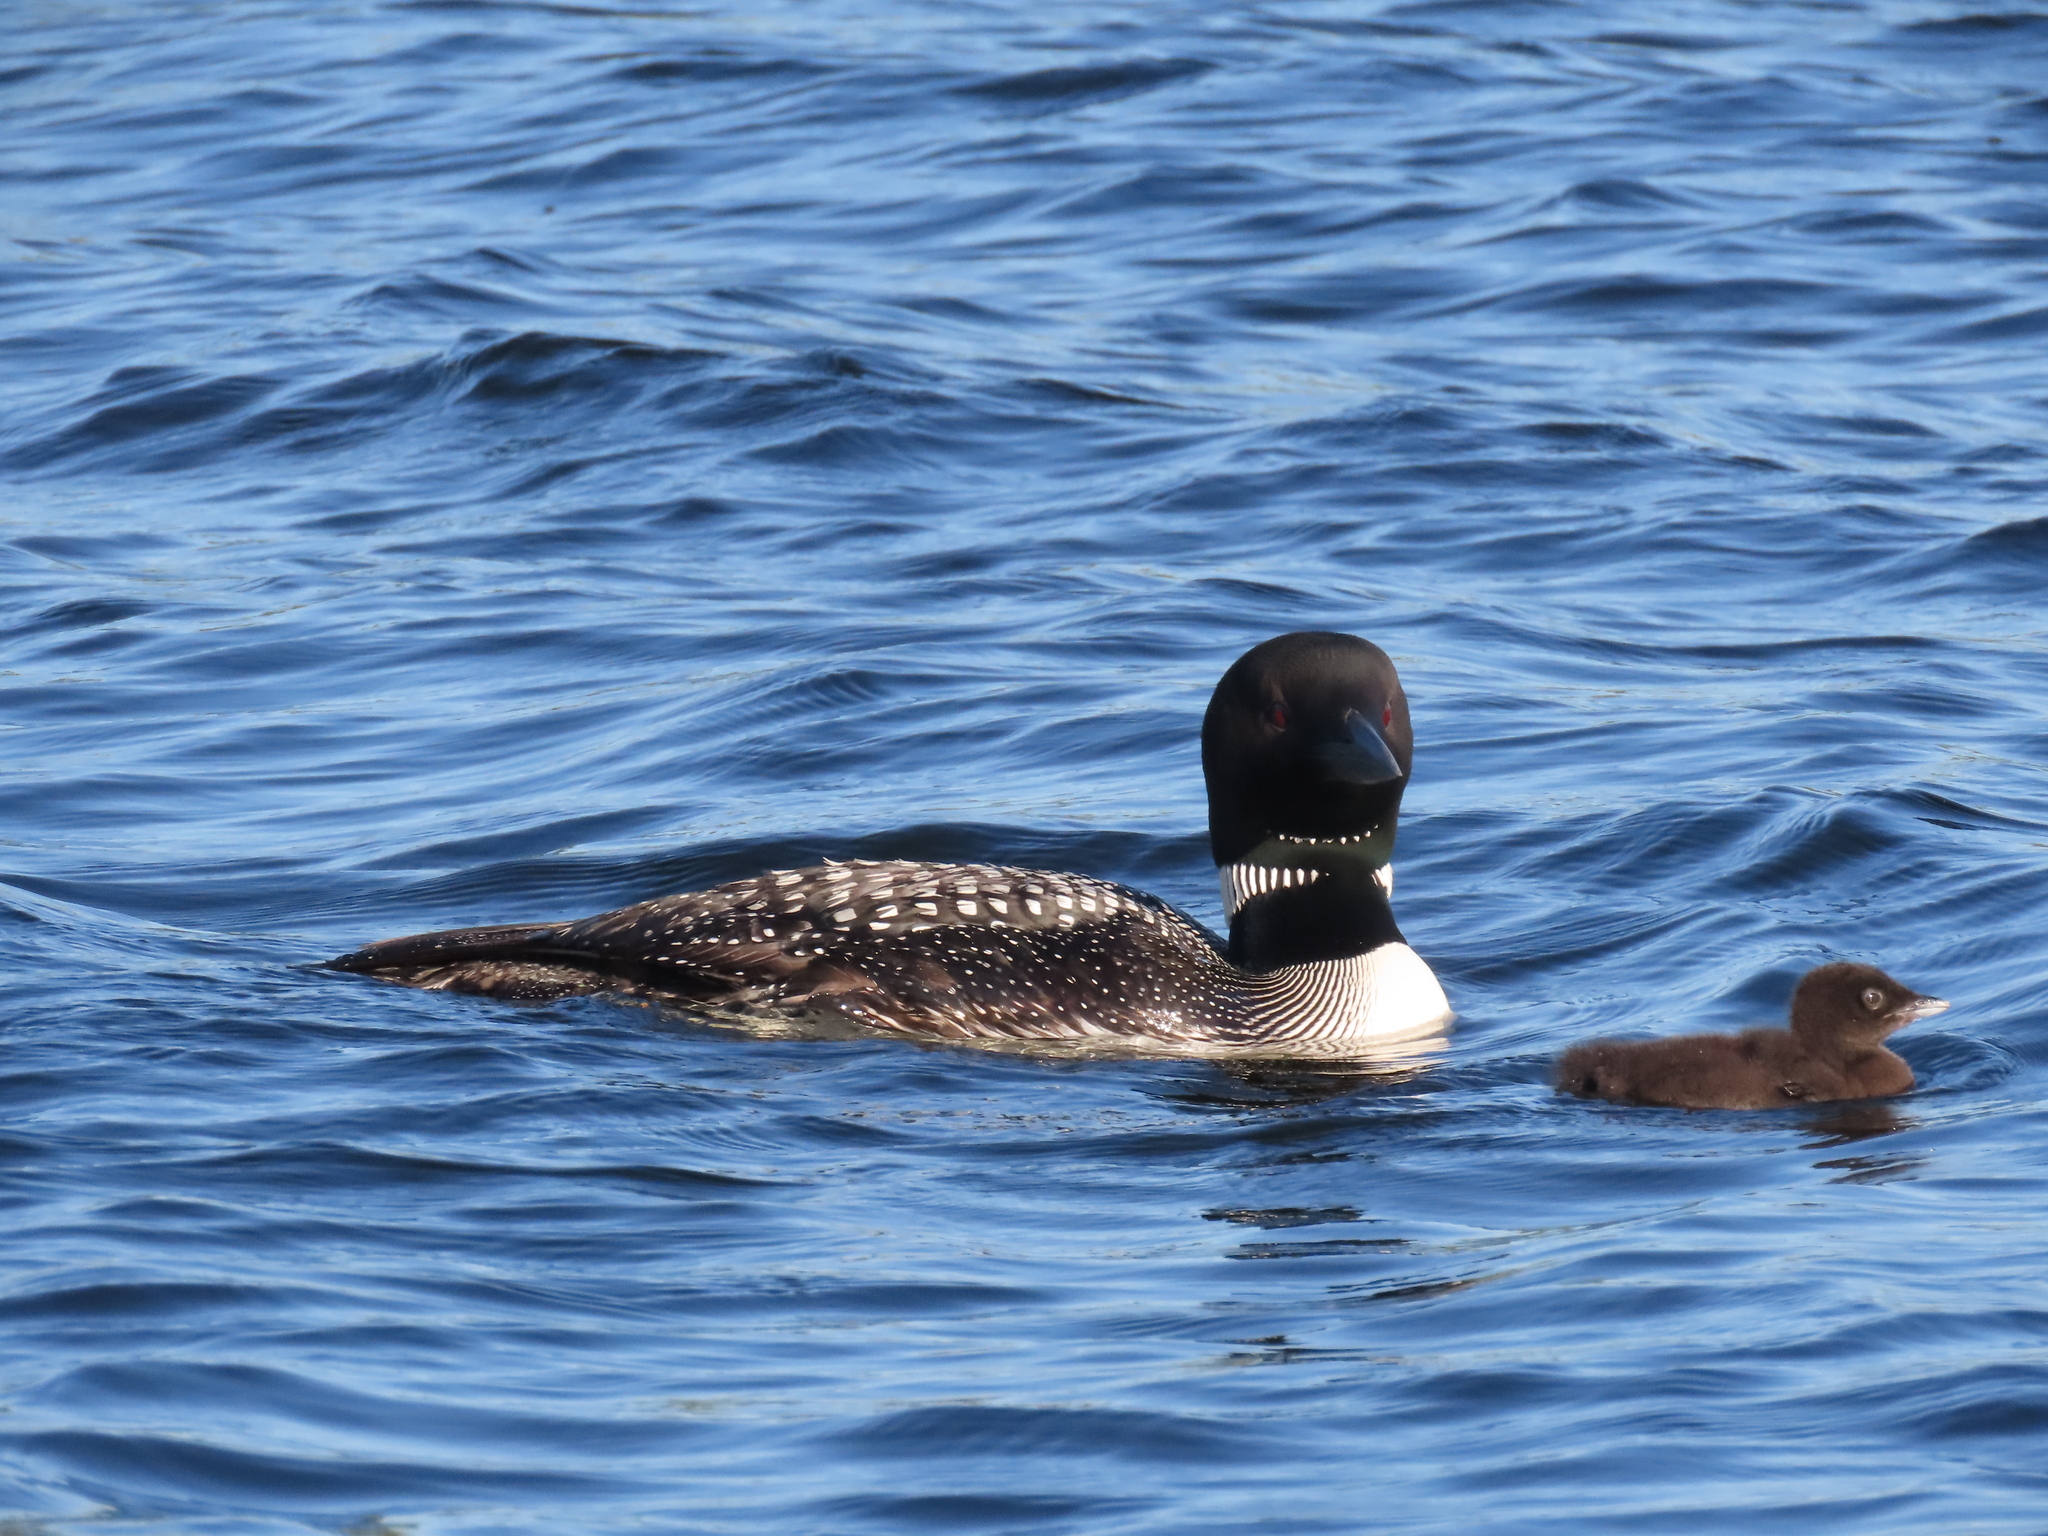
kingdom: Animalia
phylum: Chordata
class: Aves
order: Gaviiformes
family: Gaviidae
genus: Gavia
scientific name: Gavia immer
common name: Common loon
